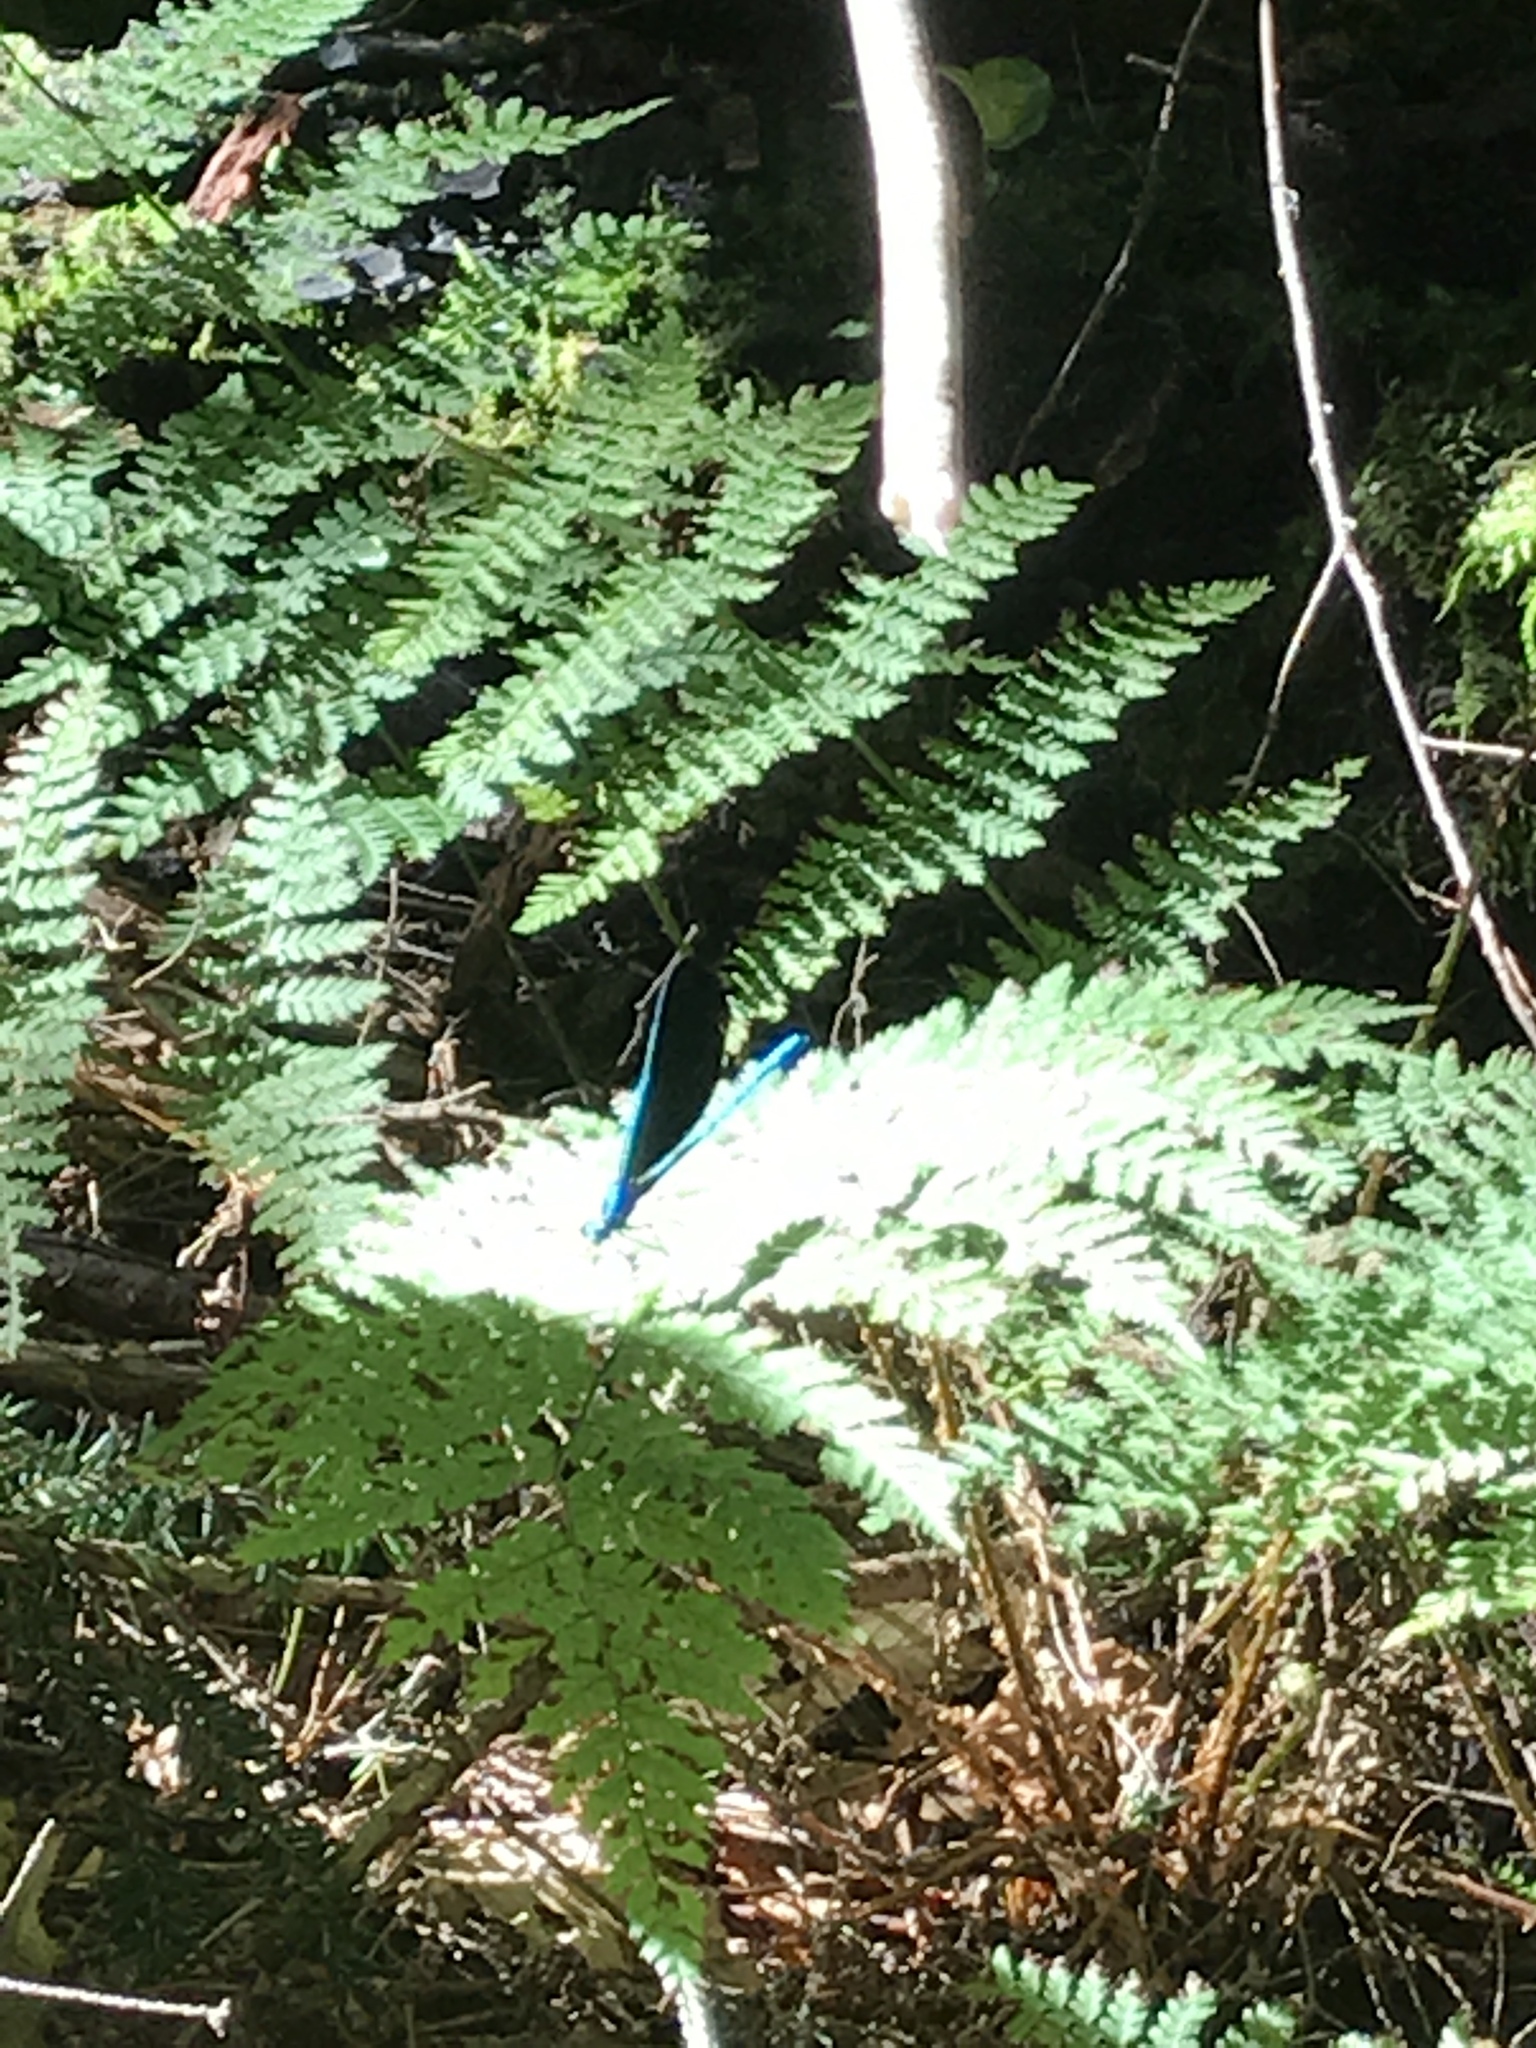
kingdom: Animalia
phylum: Arthropoda
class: Insecta
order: Odonata
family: Calopterygidae
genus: Calopteryx
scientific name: Calopteryx maculata
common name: Ebony jewelwing
